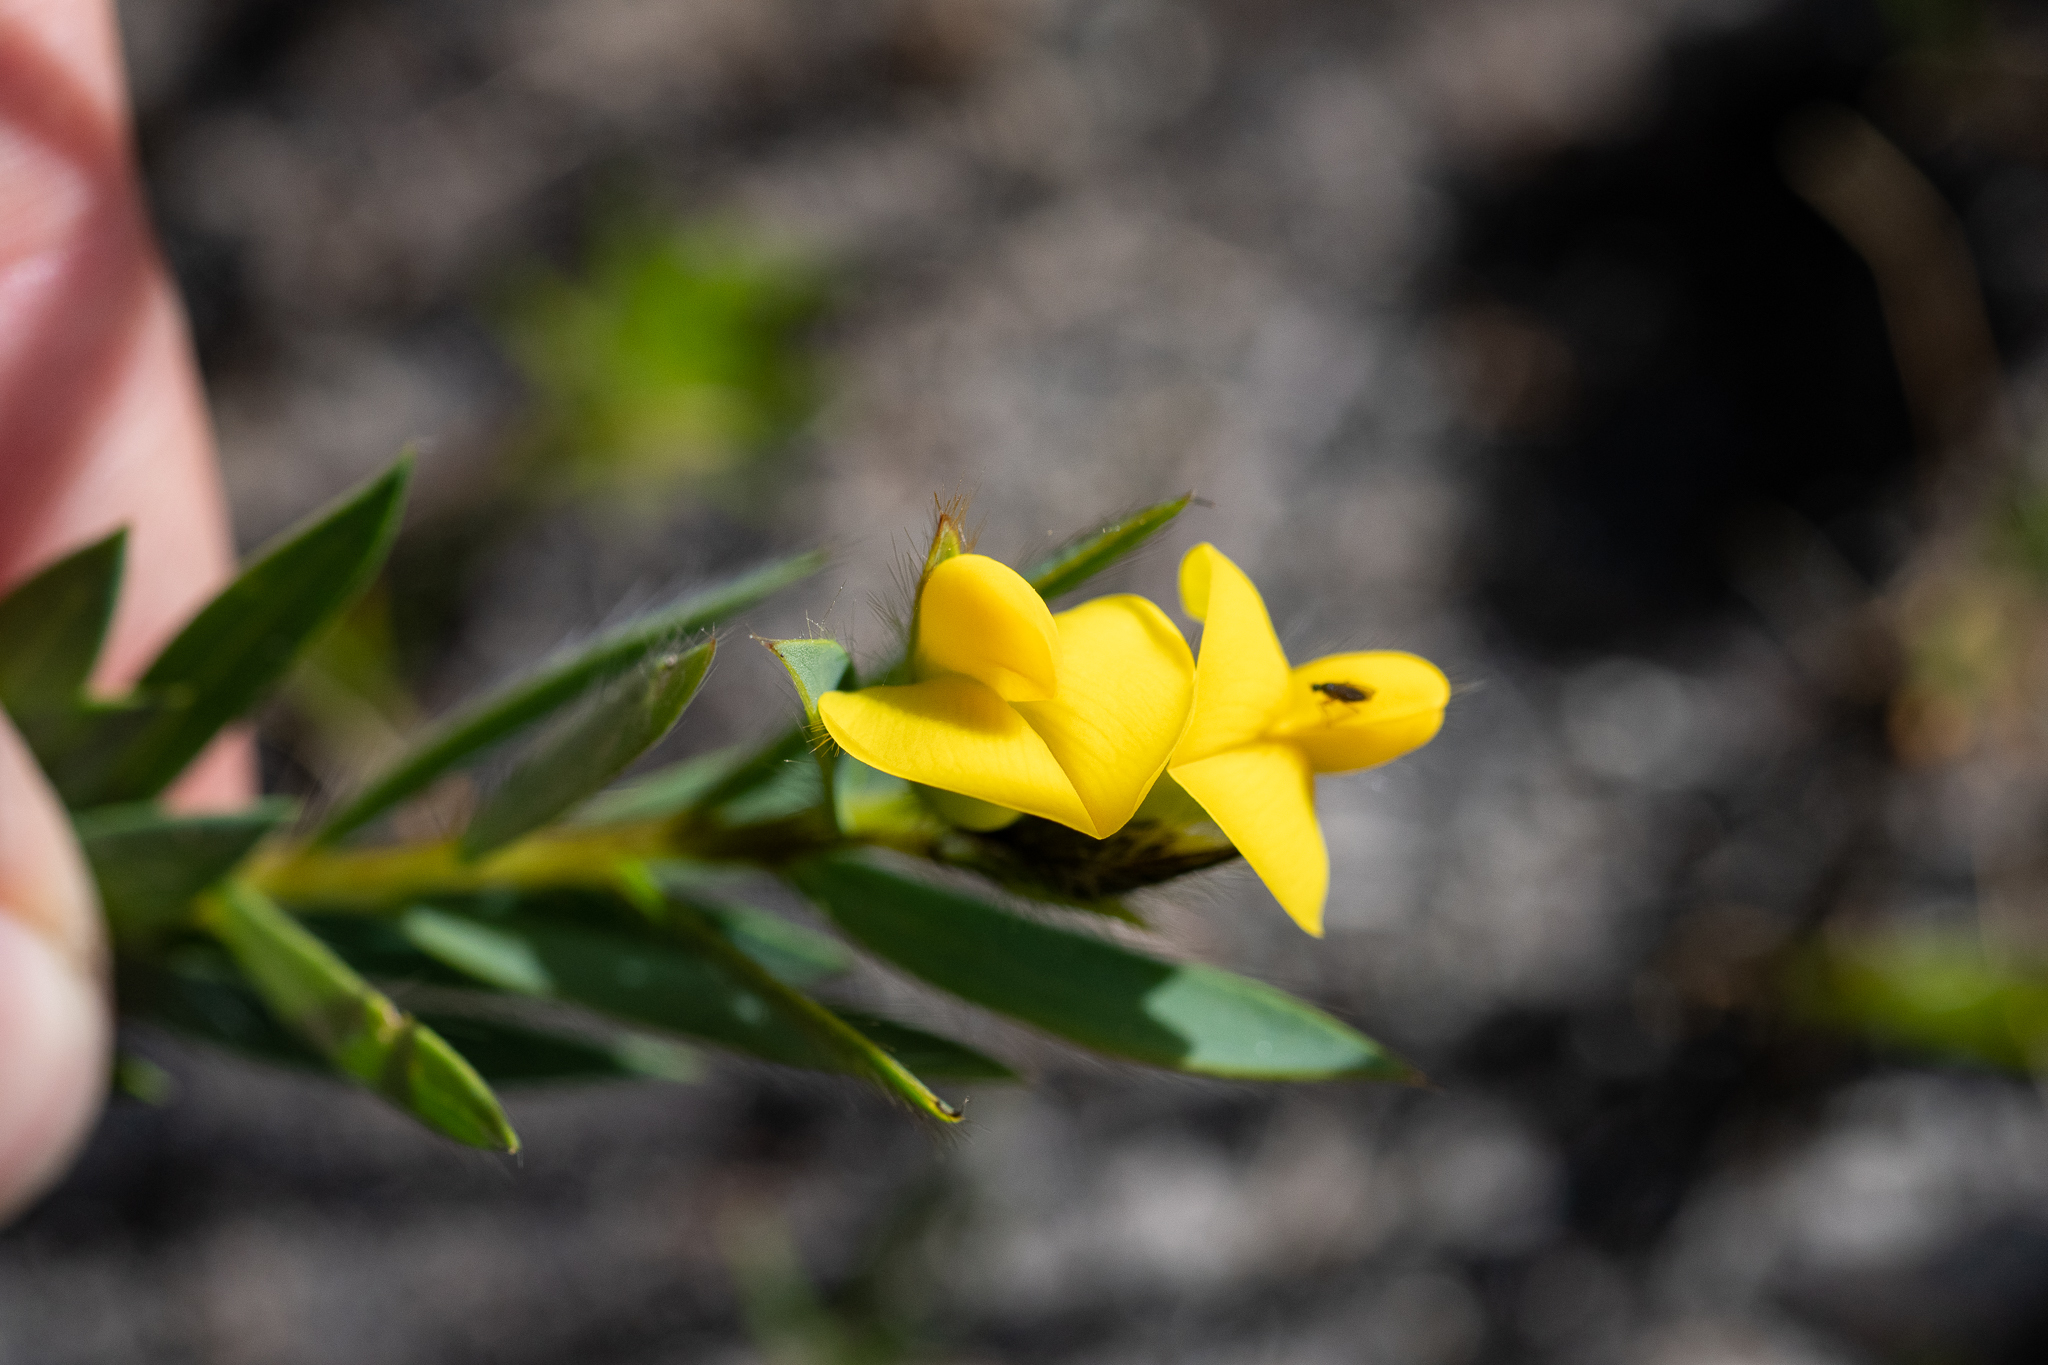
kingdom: Plantae
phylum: Tracheophyta
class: Magnoliopsida
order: Fabales
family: Fabaceae
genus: Liparia
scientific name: Liparia angustifolia
